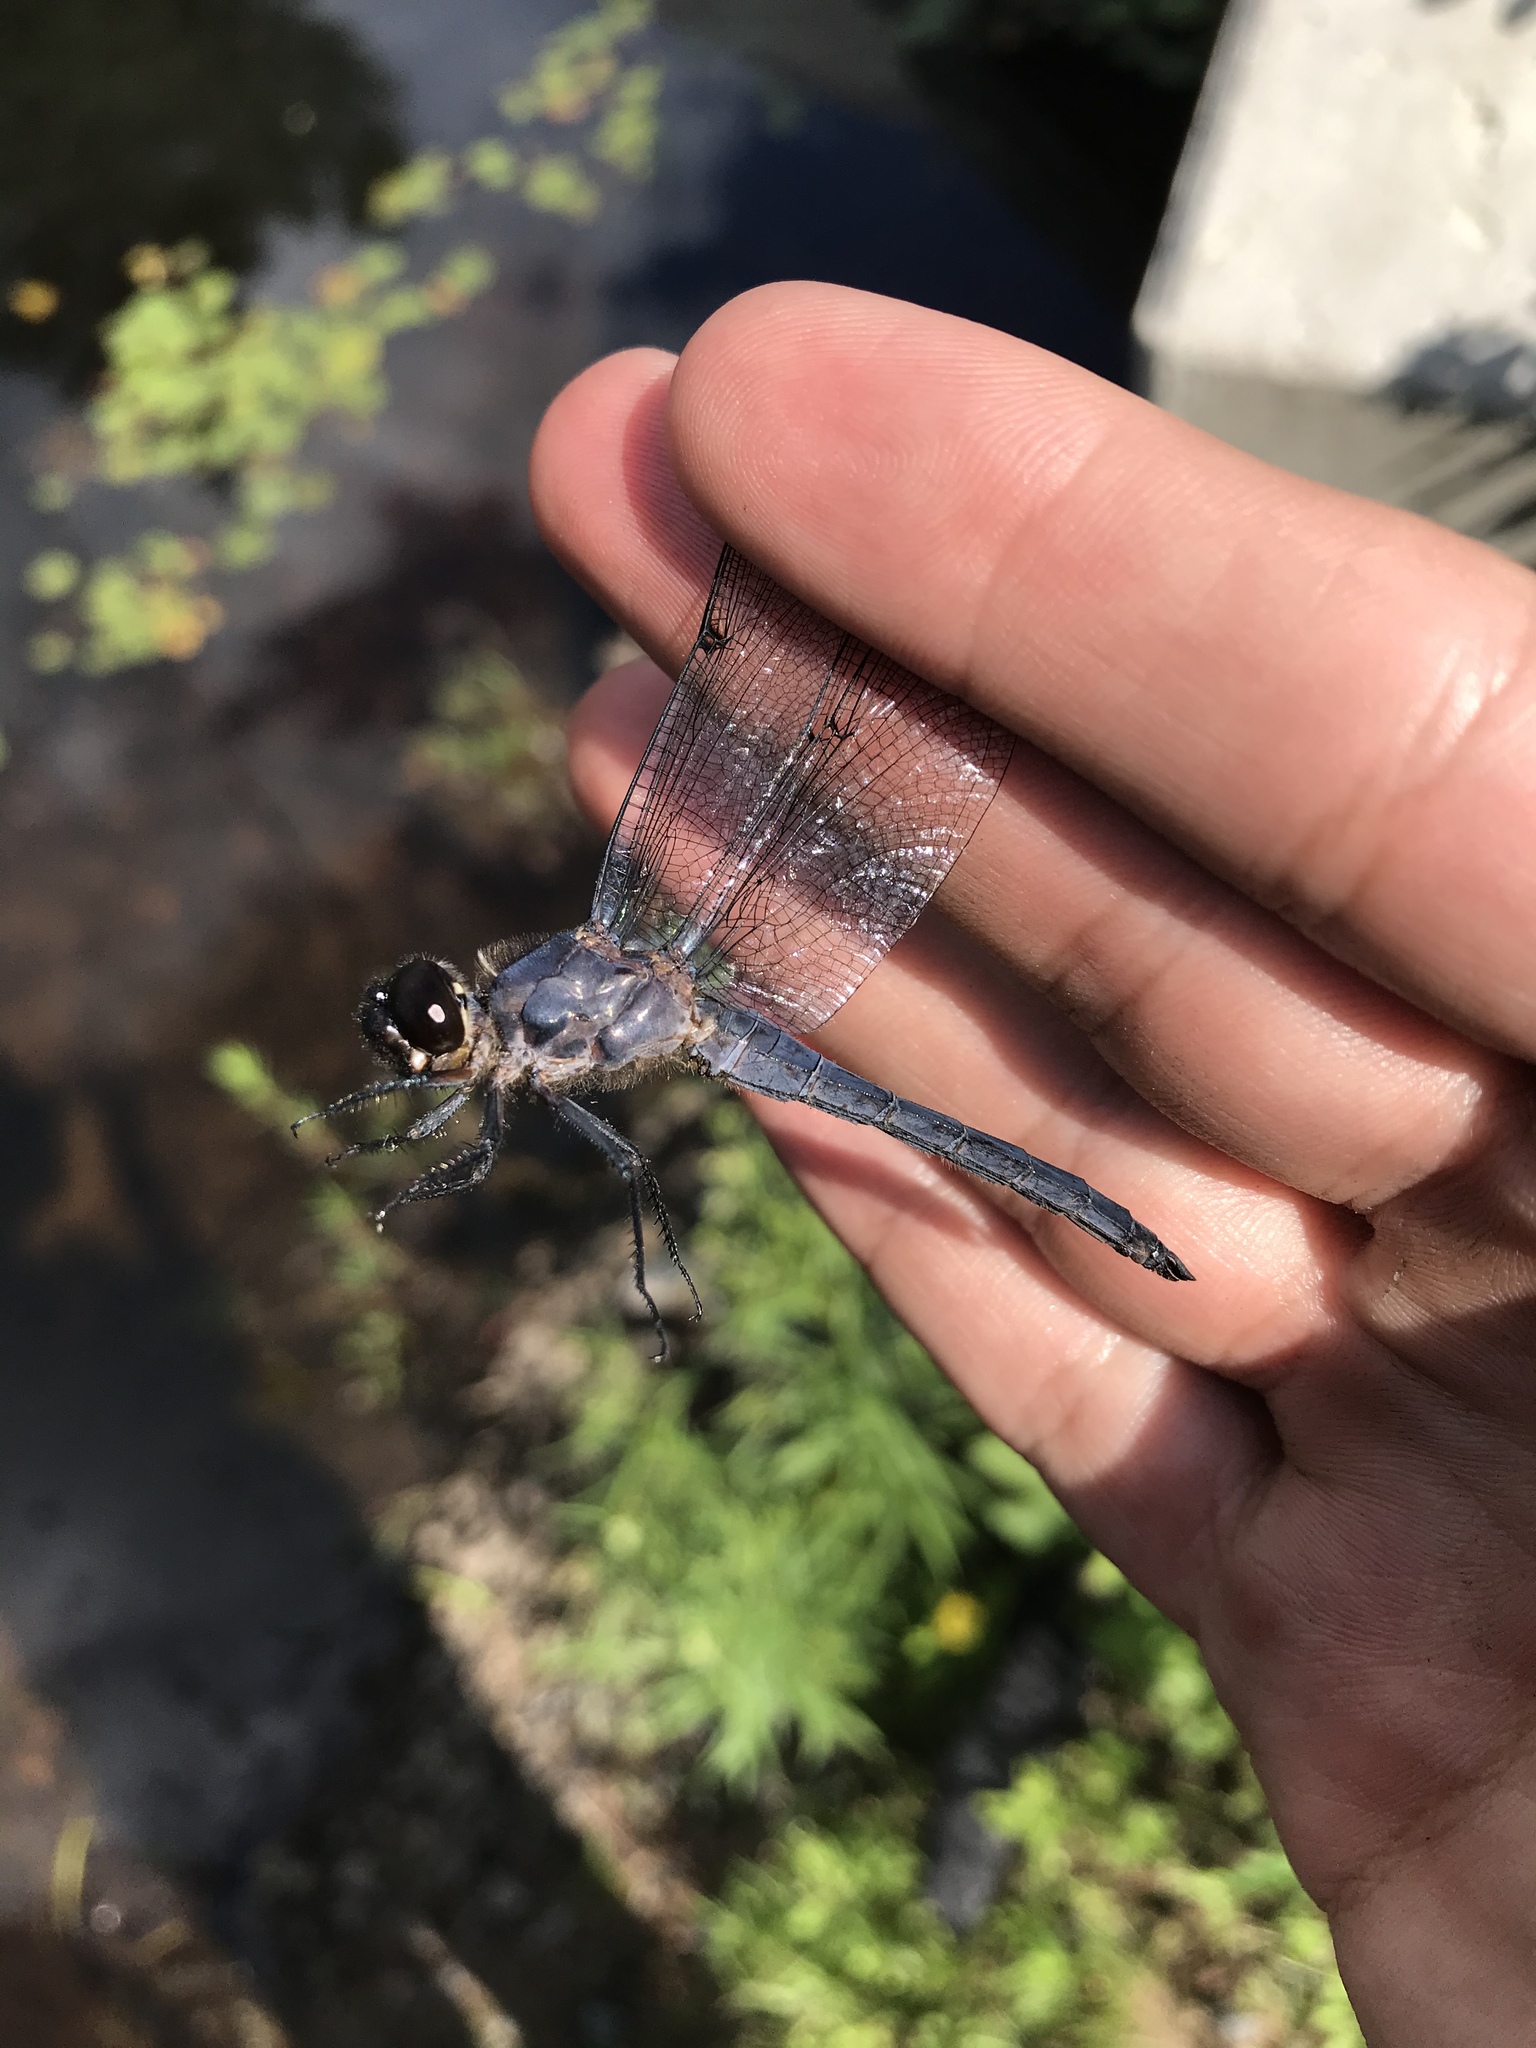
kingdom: Animalia
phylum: Arthropoda
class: Insecta
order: Odonata
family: Libellulidae
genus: Libellula
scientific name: Libellula incesta
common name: Slaty skimmer
